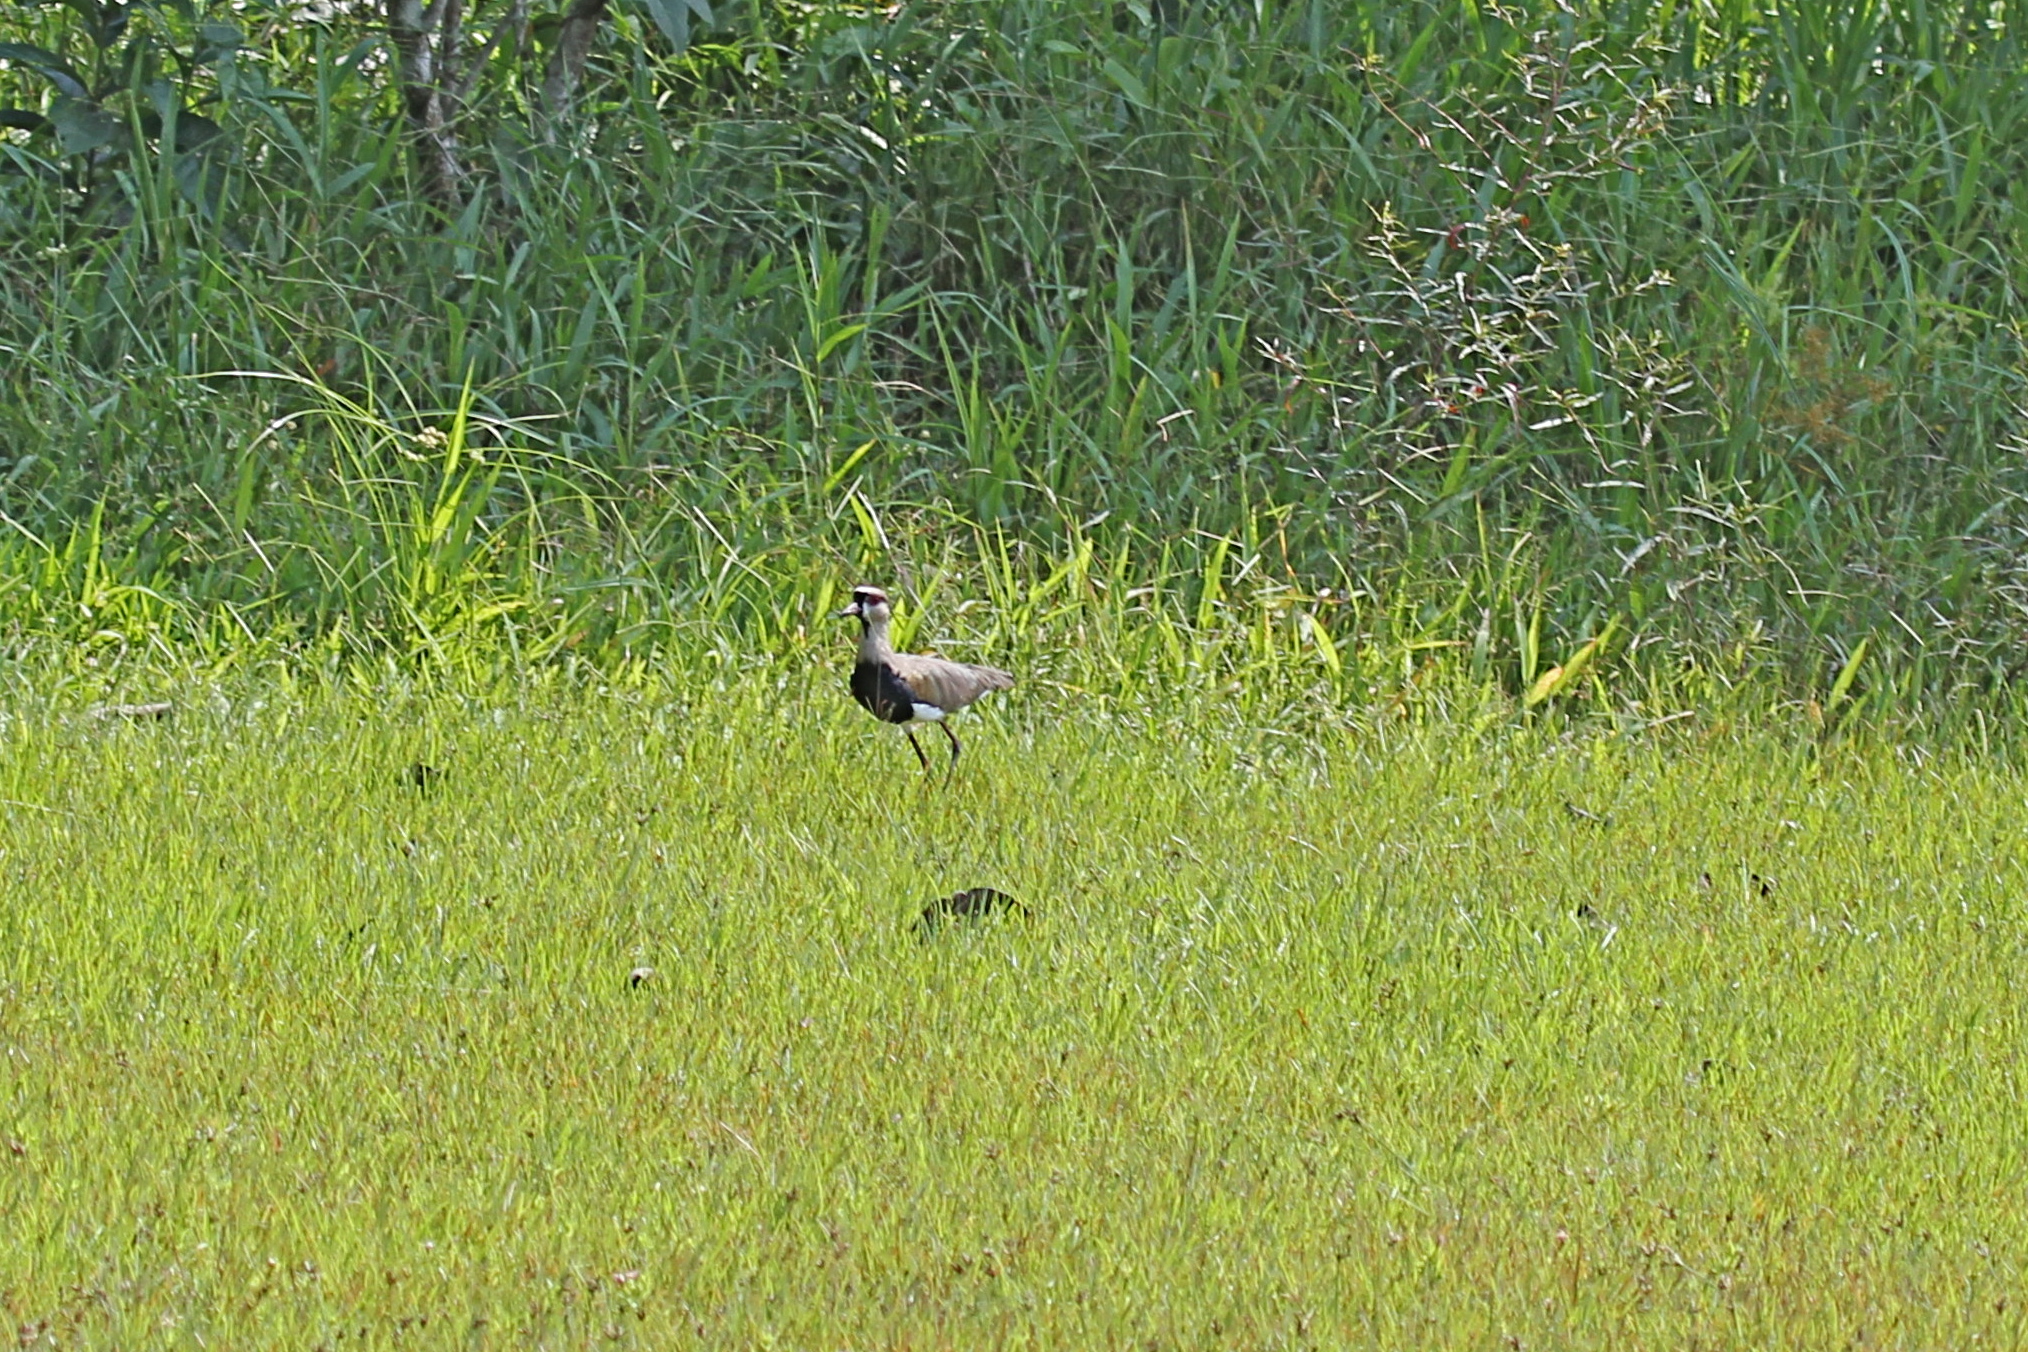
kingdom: Animalia
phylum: Chordata
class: Aves
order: Charadriiformes
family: Charadriidae
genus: Vanellus
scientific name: Vanellus chilensis
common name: Southern lapwing
